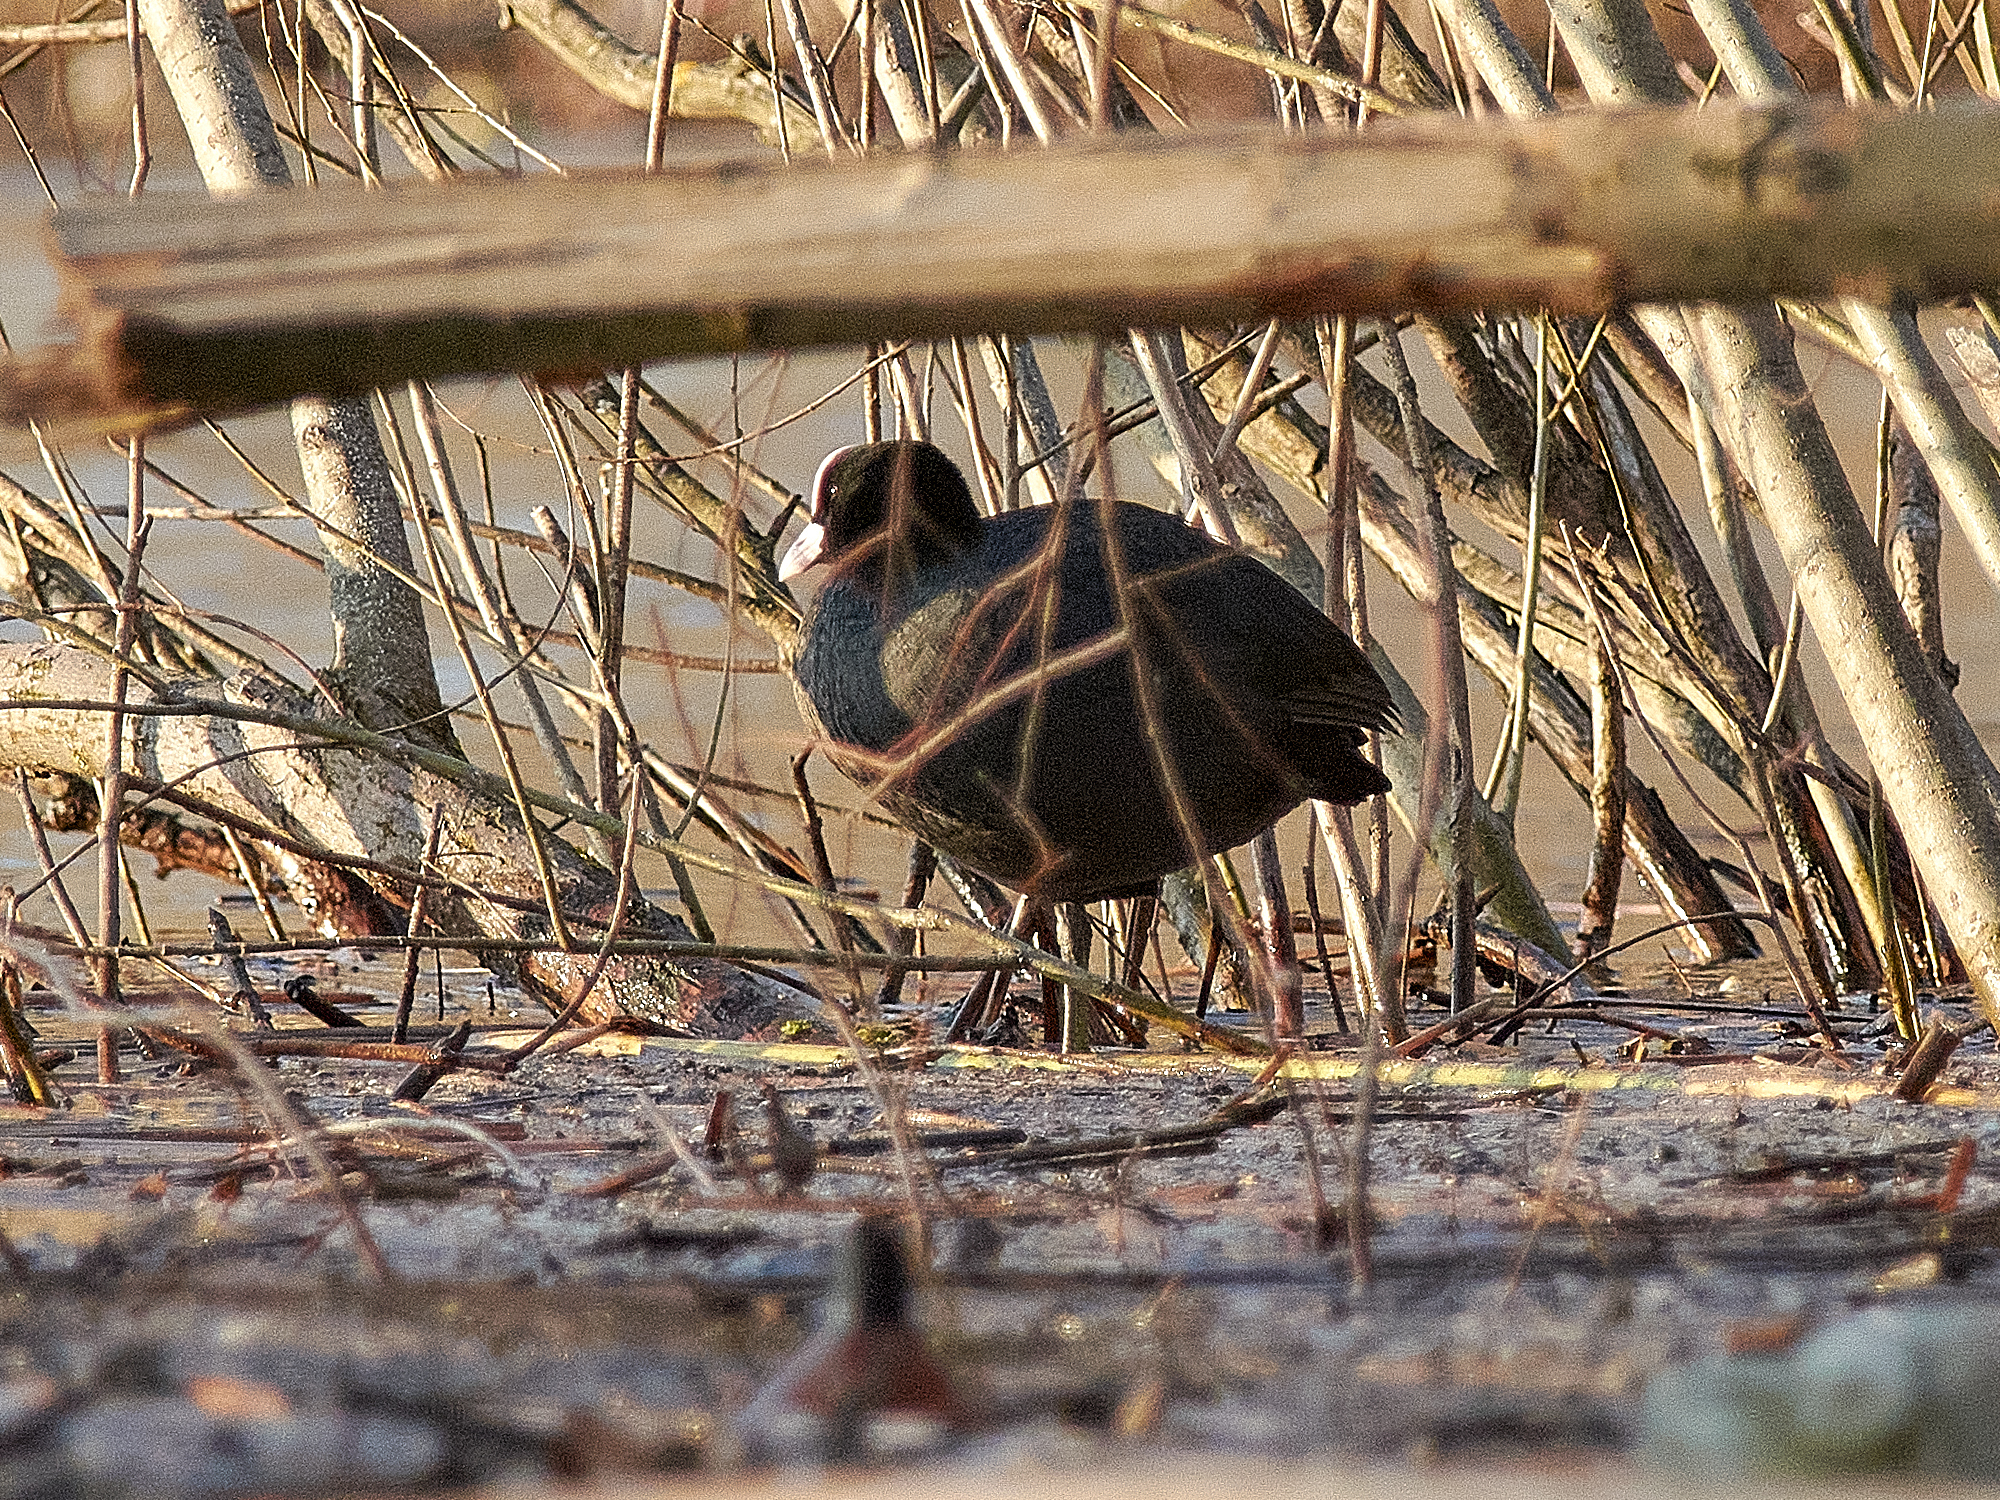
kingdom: Animalia
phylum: Chordata
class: Aves
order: Gruiformes
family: Rallidae
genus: Fulica
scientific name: Fulica atra
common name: Eurasian coot
